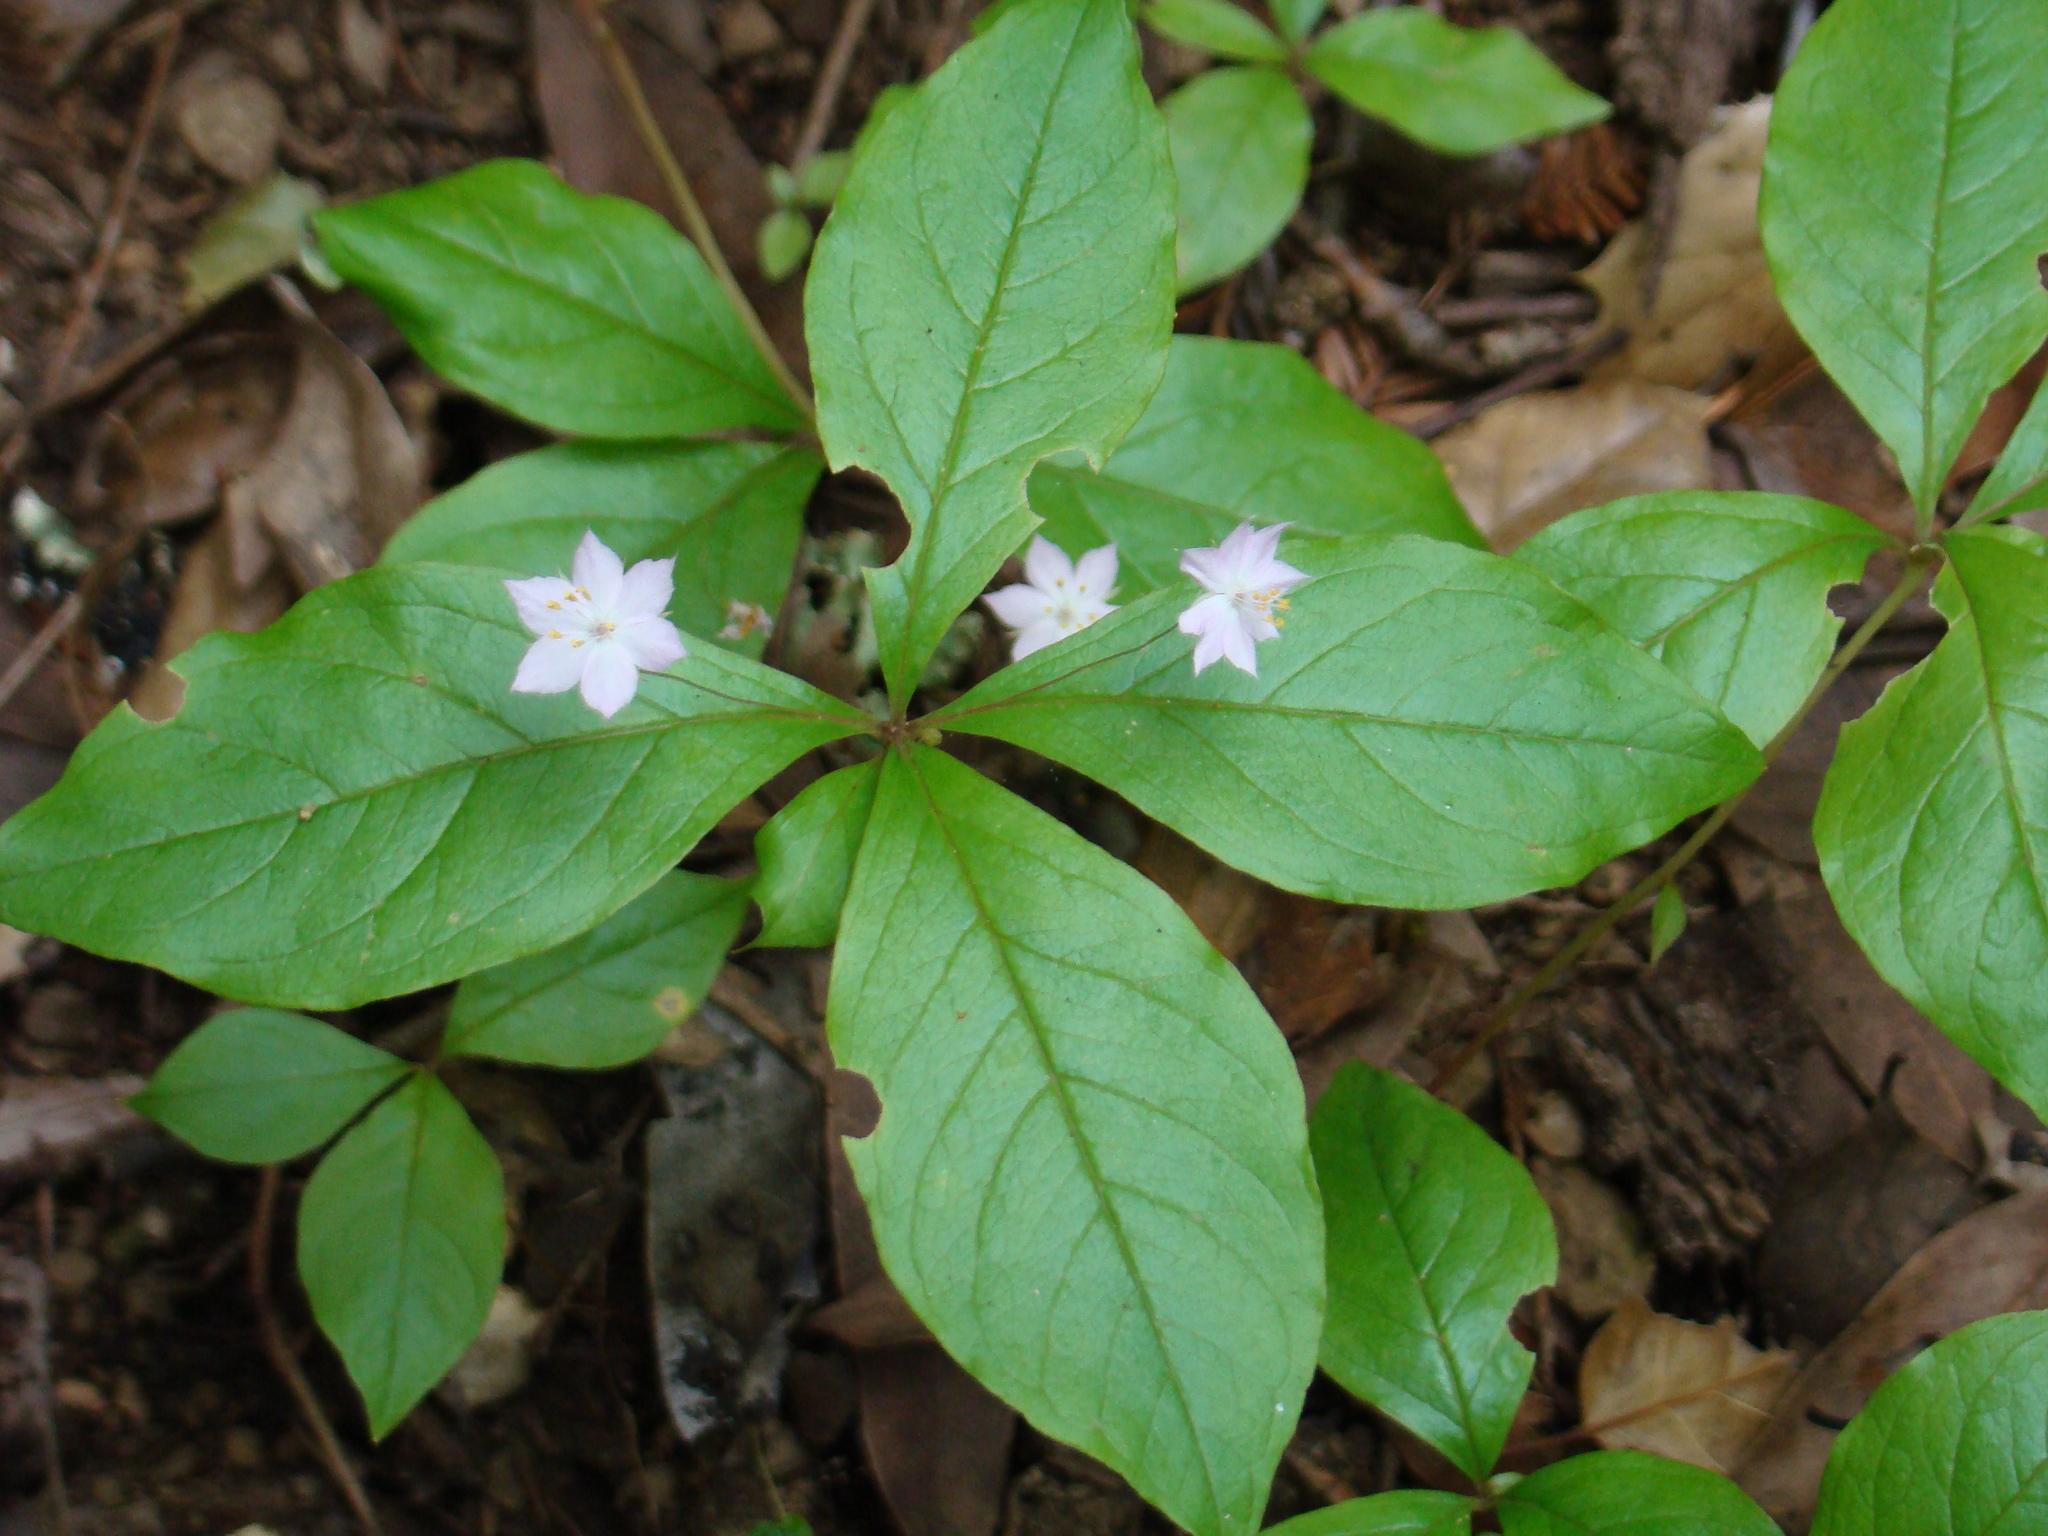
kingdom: Plantae
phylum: Tracheophyta
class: Magnoliopsida
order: Ericales
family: Primulaceae
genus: Lysimachia
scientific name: Lysimachia latifolia
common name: Pacific starflower
